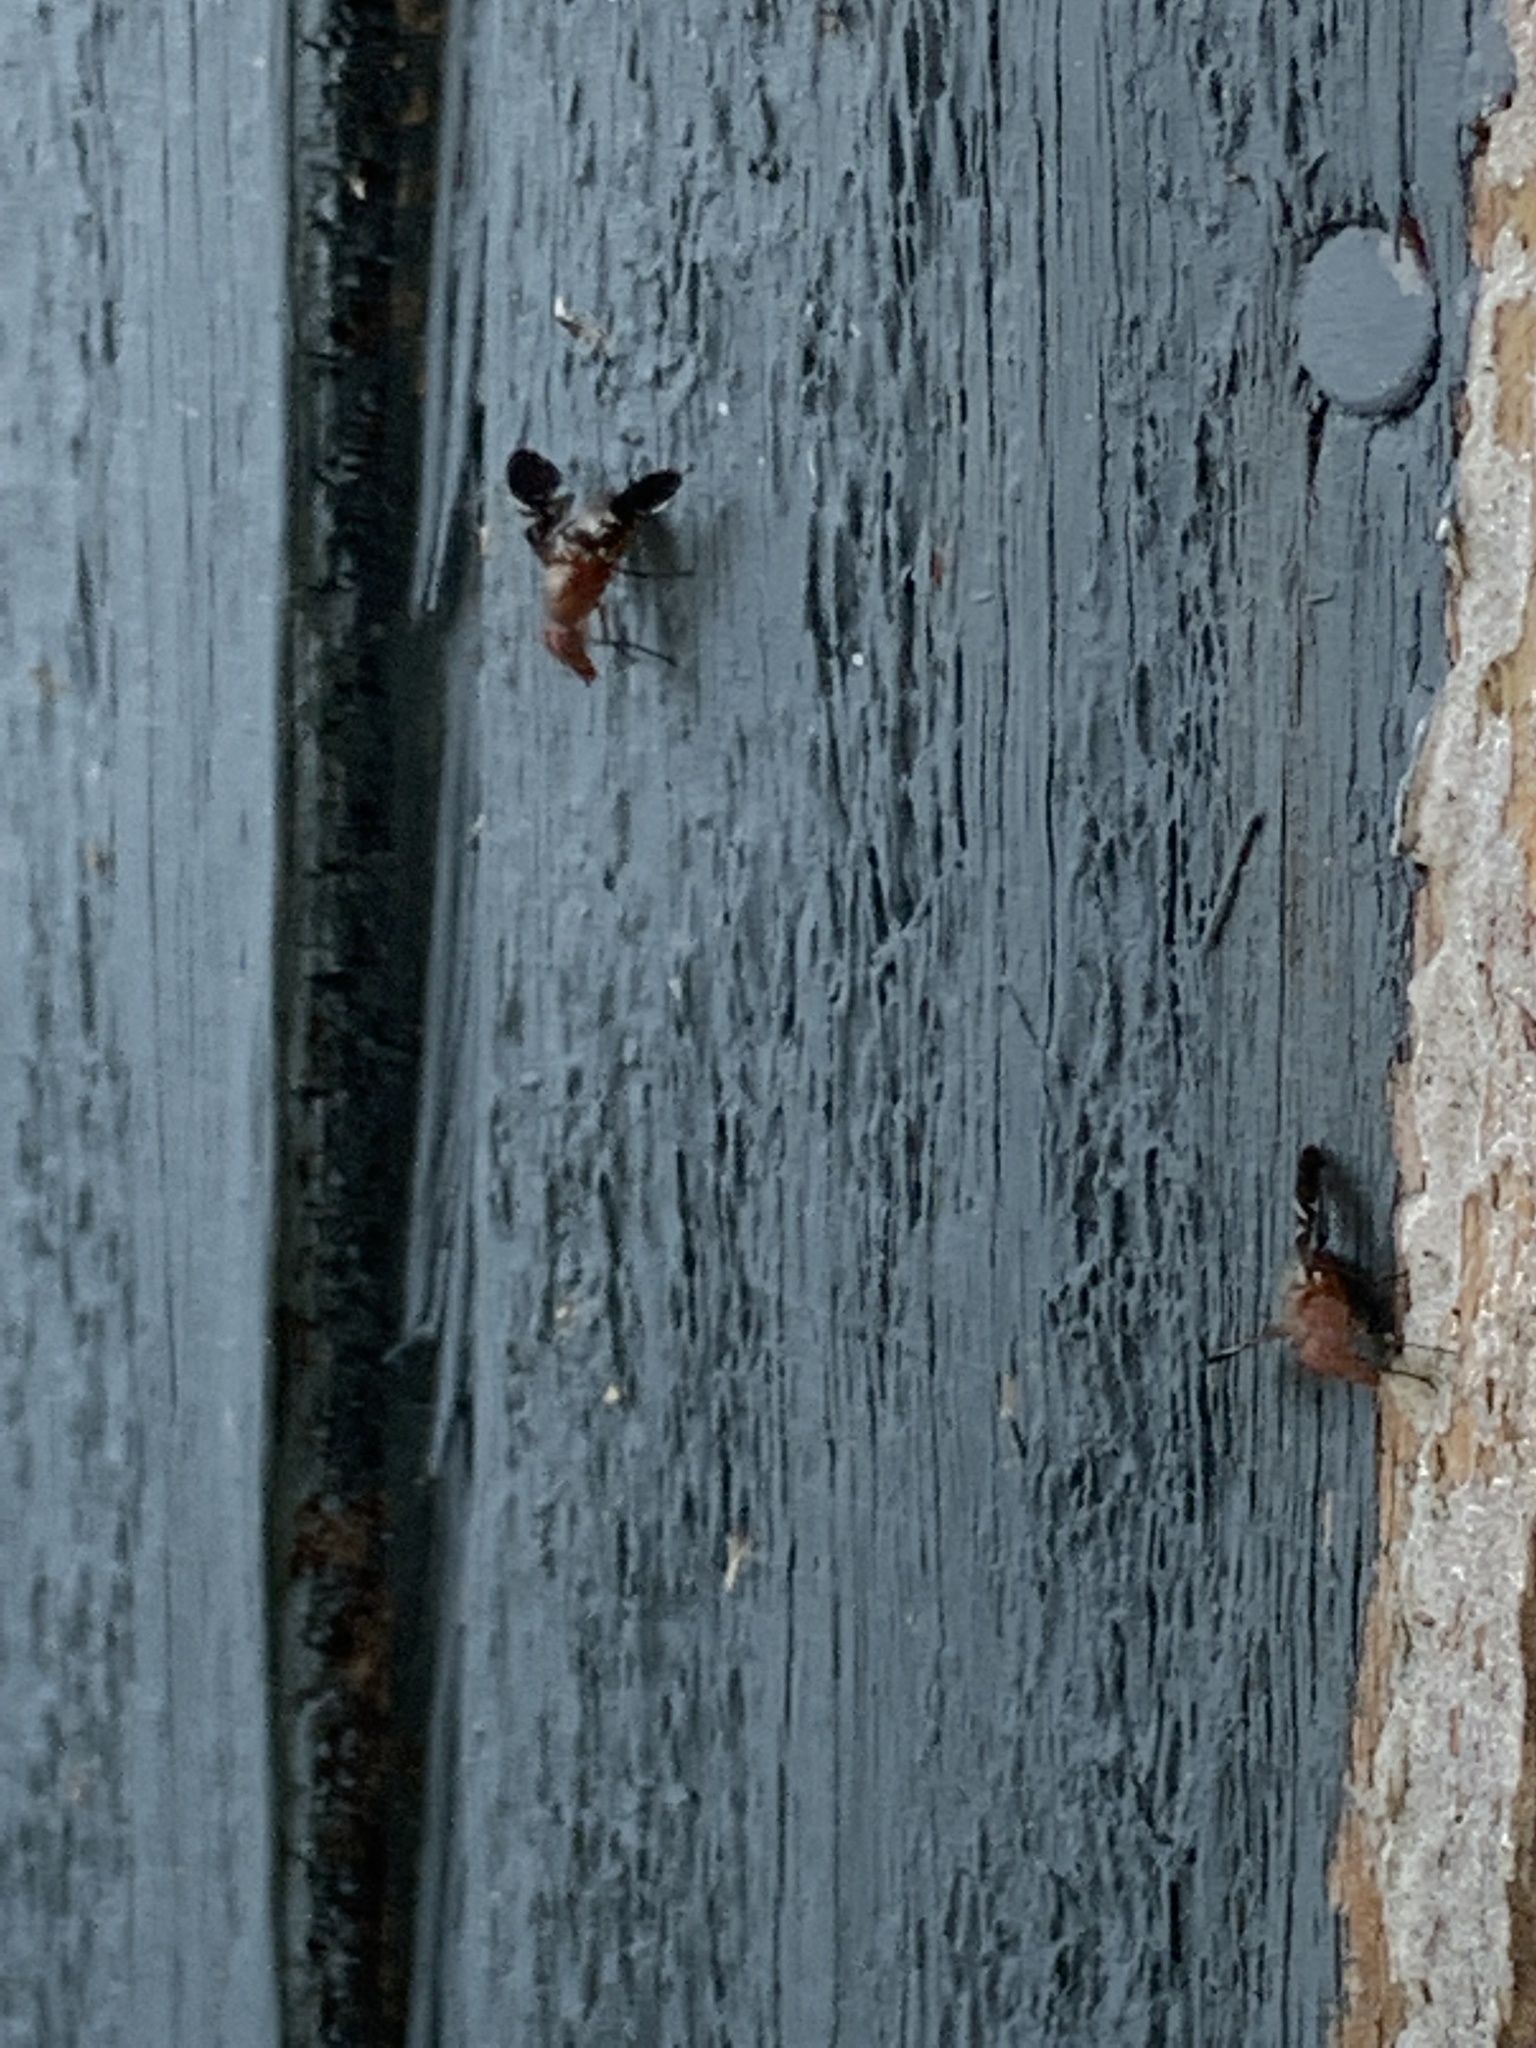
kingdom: Animalia
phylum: Arthropoda
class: Insecta
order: Diptera
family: Ulidiidae
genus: Delphinia
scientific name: Delphinia picta
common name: Common picture-winged fly
